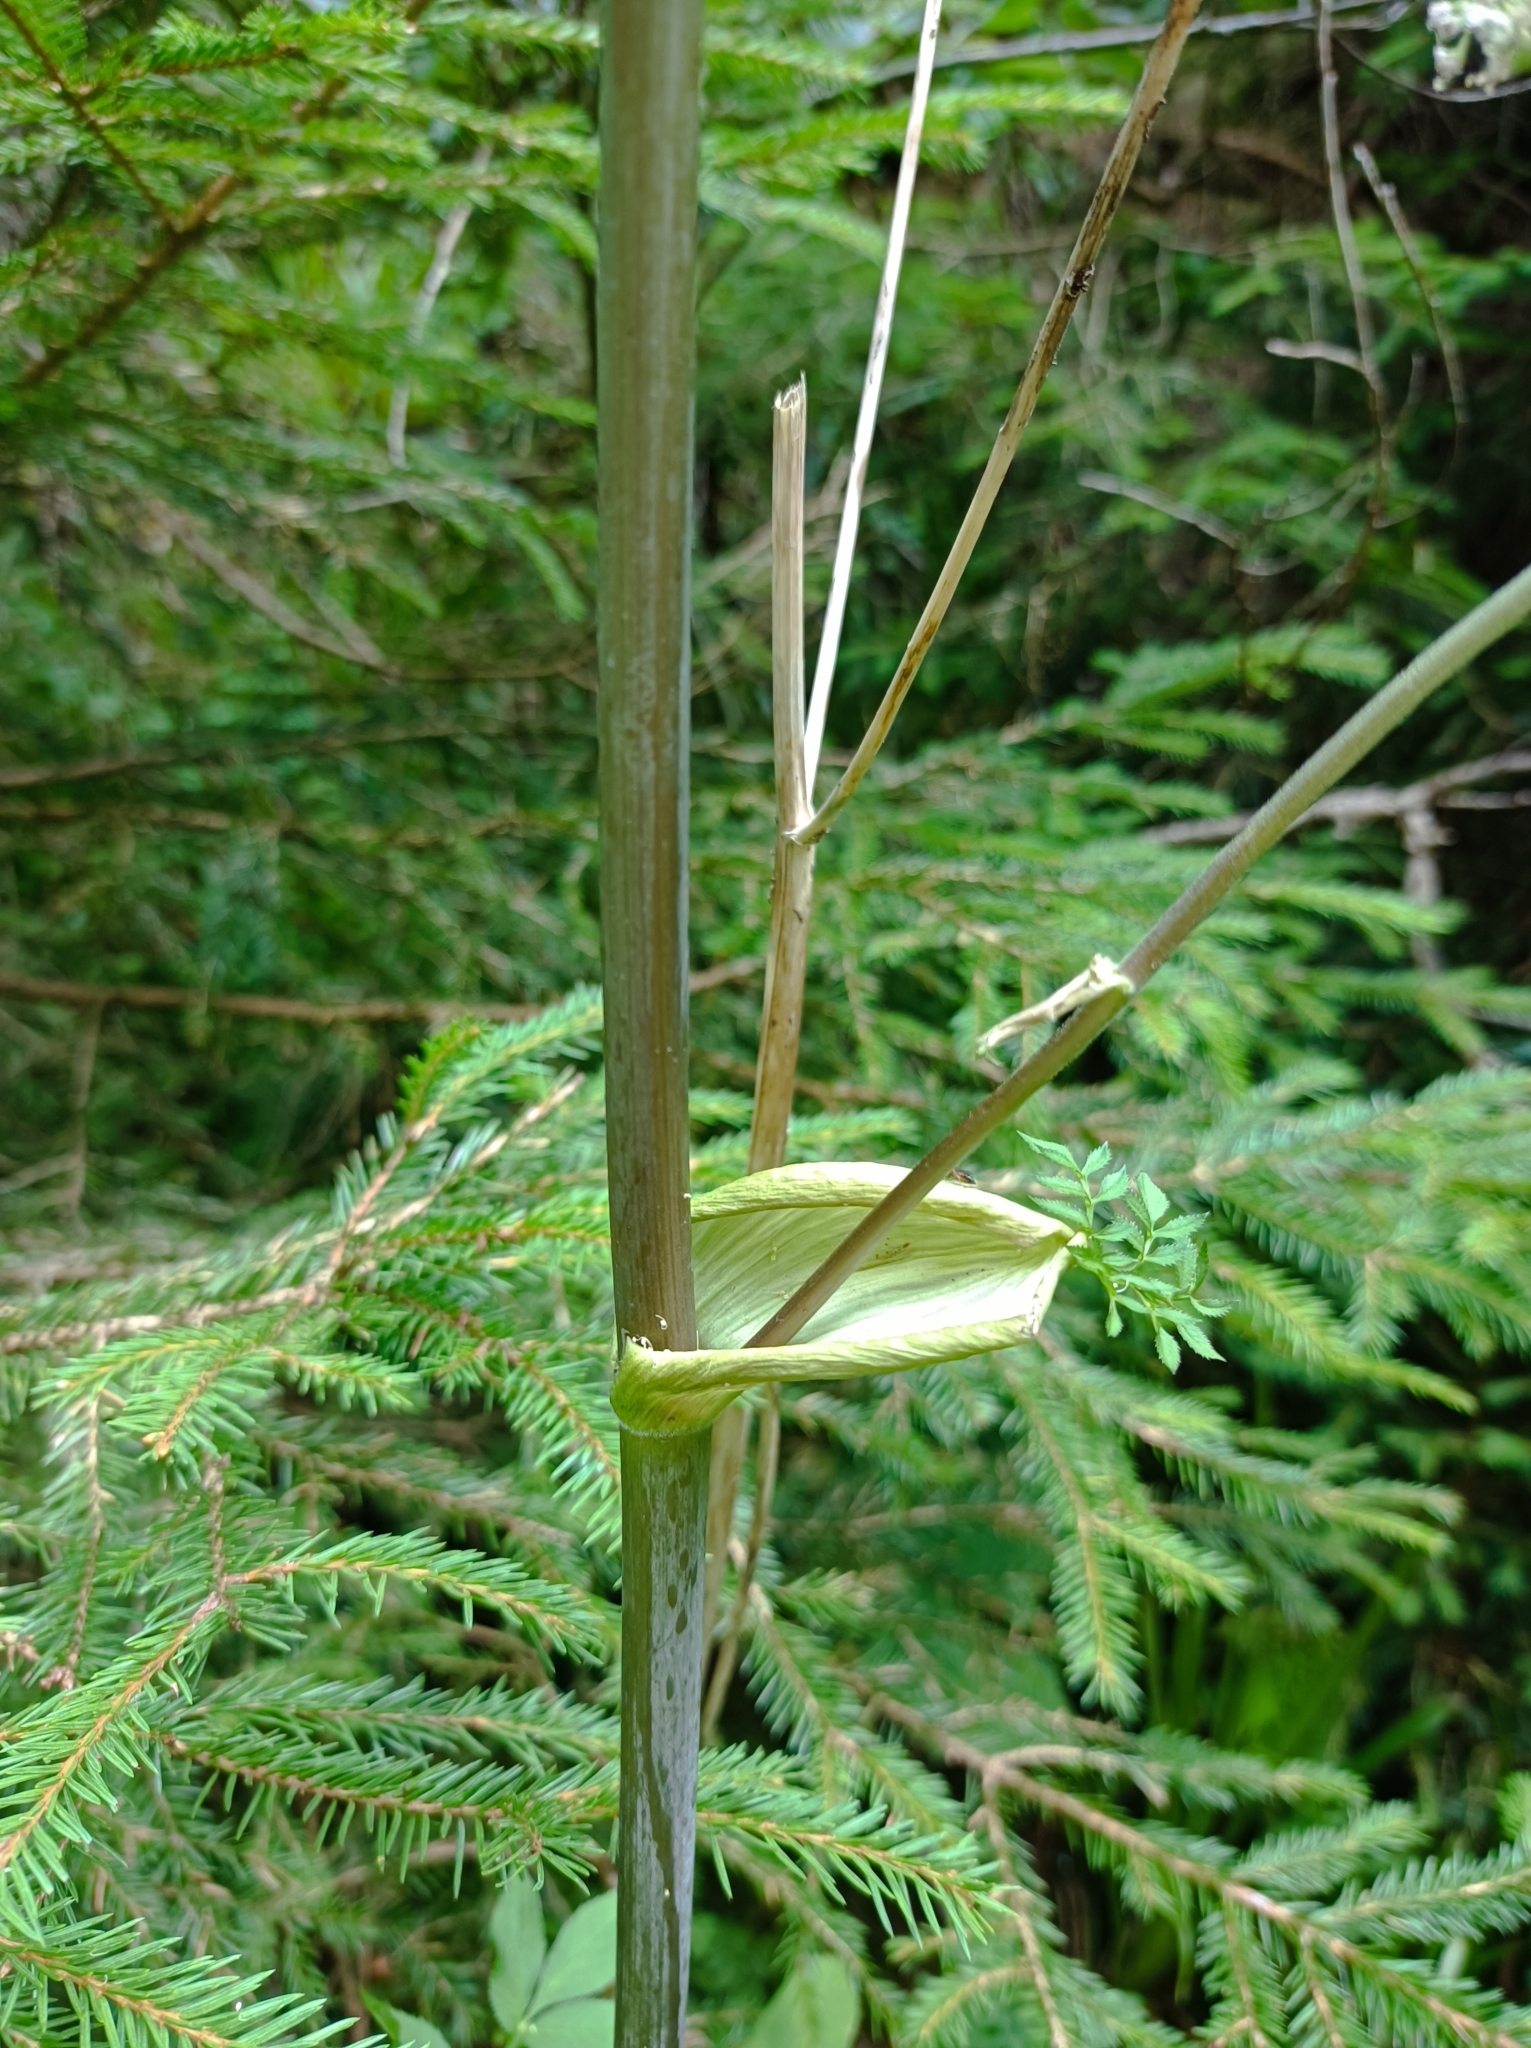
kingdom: Plantae
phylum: Tracheophyta
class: Magnoliopsida
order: Apiales
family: Apiaceae
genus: Angelica
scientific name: Angelica sylvestris
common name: Wild angelica
